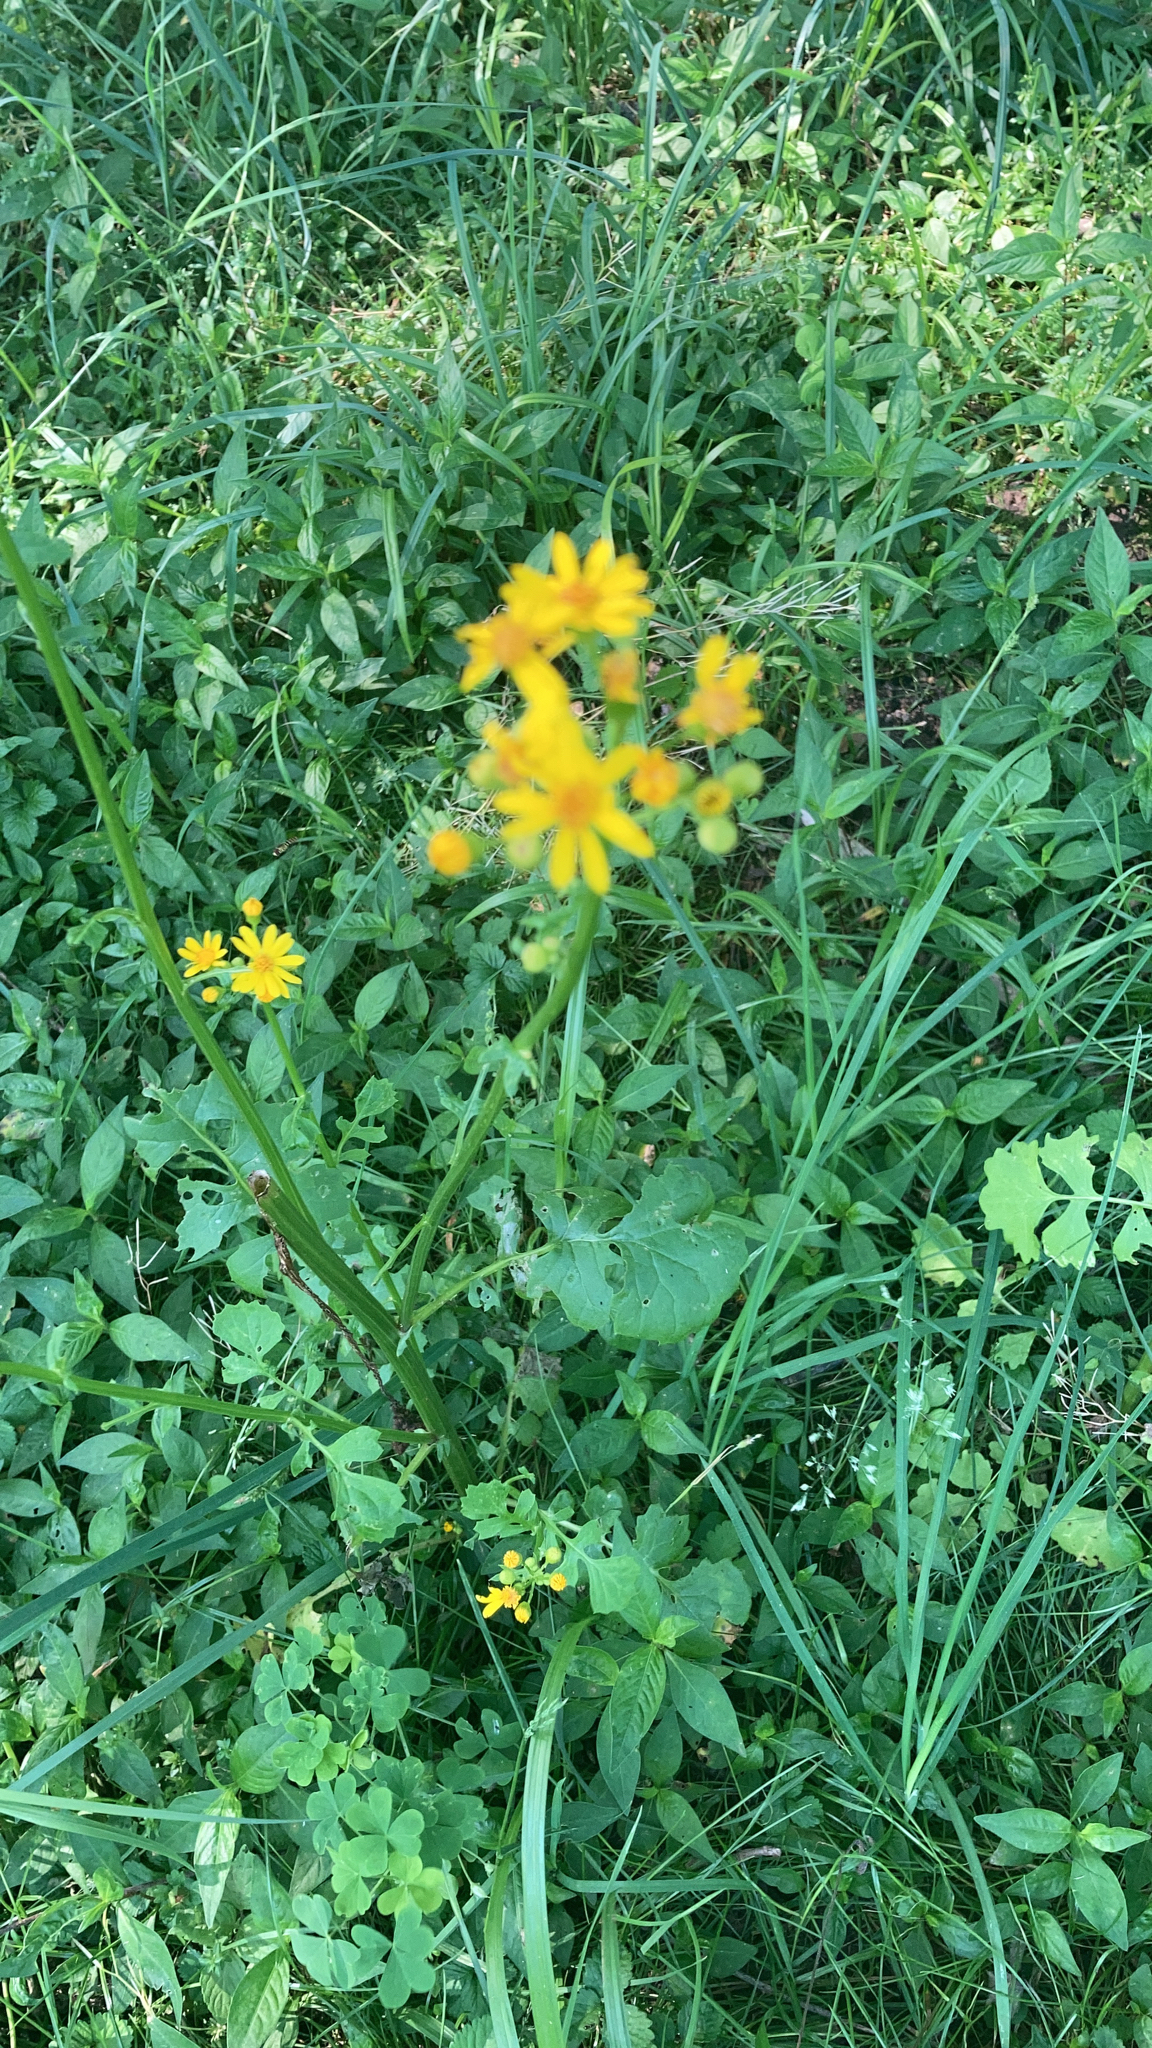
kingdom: Plantae
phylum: Tracheophyta
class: Magnoliopsida
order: Asterales
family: Asteraceae
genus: Packera
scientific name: Packera glabella
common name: Butterweed
